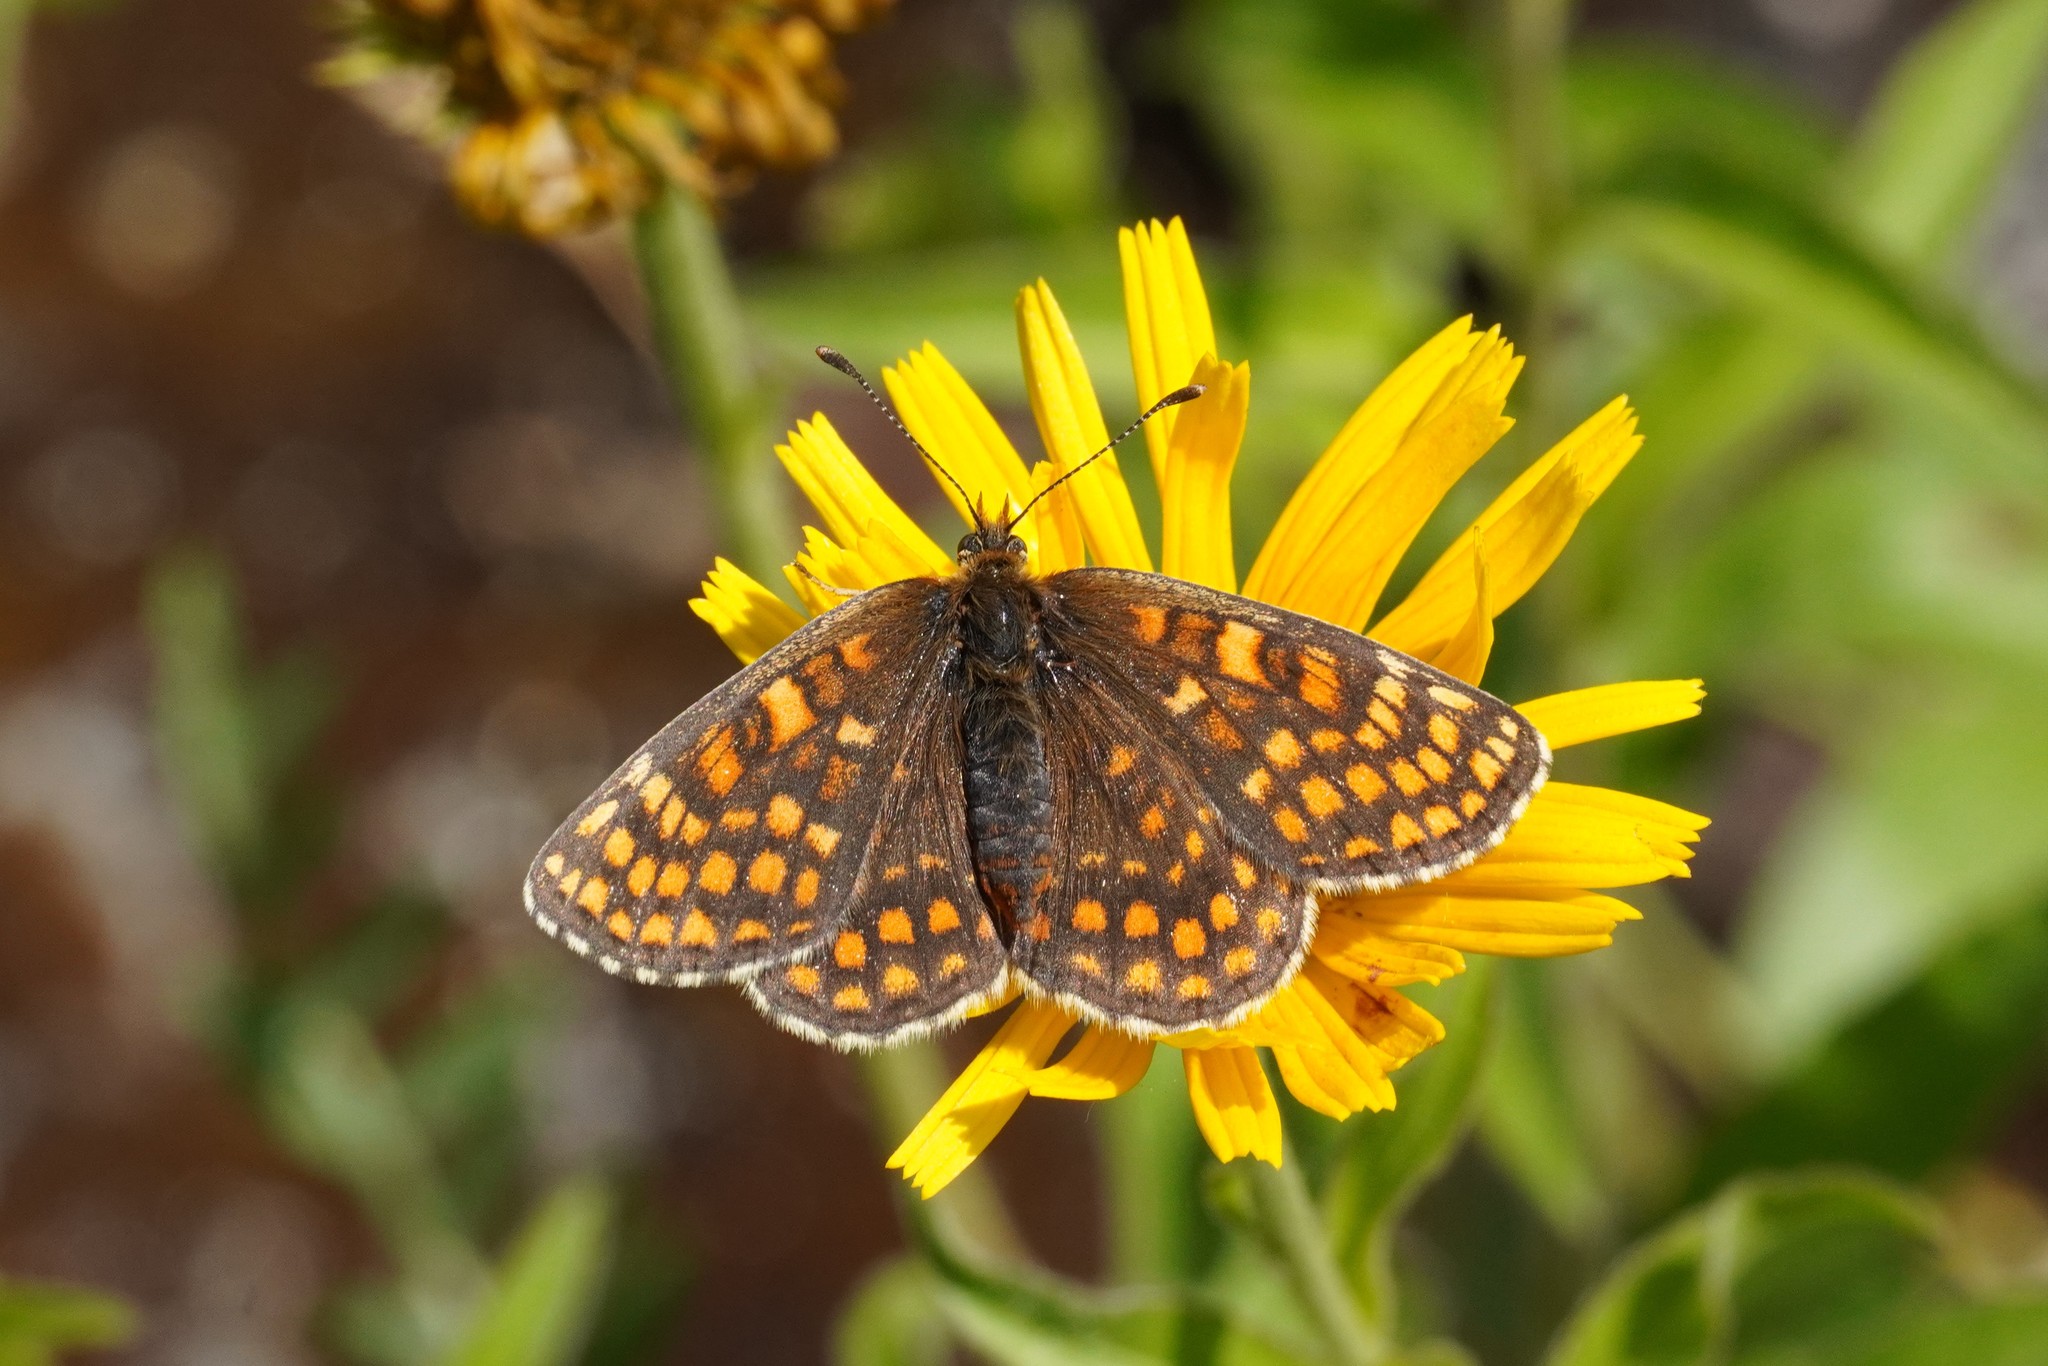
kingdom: Animalia
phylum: Arthropoda
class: Insecta
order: Lepidoptera
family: Nymphalidae
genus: Melitaea
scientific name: Melitaea athalia
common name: Heath fritillary
